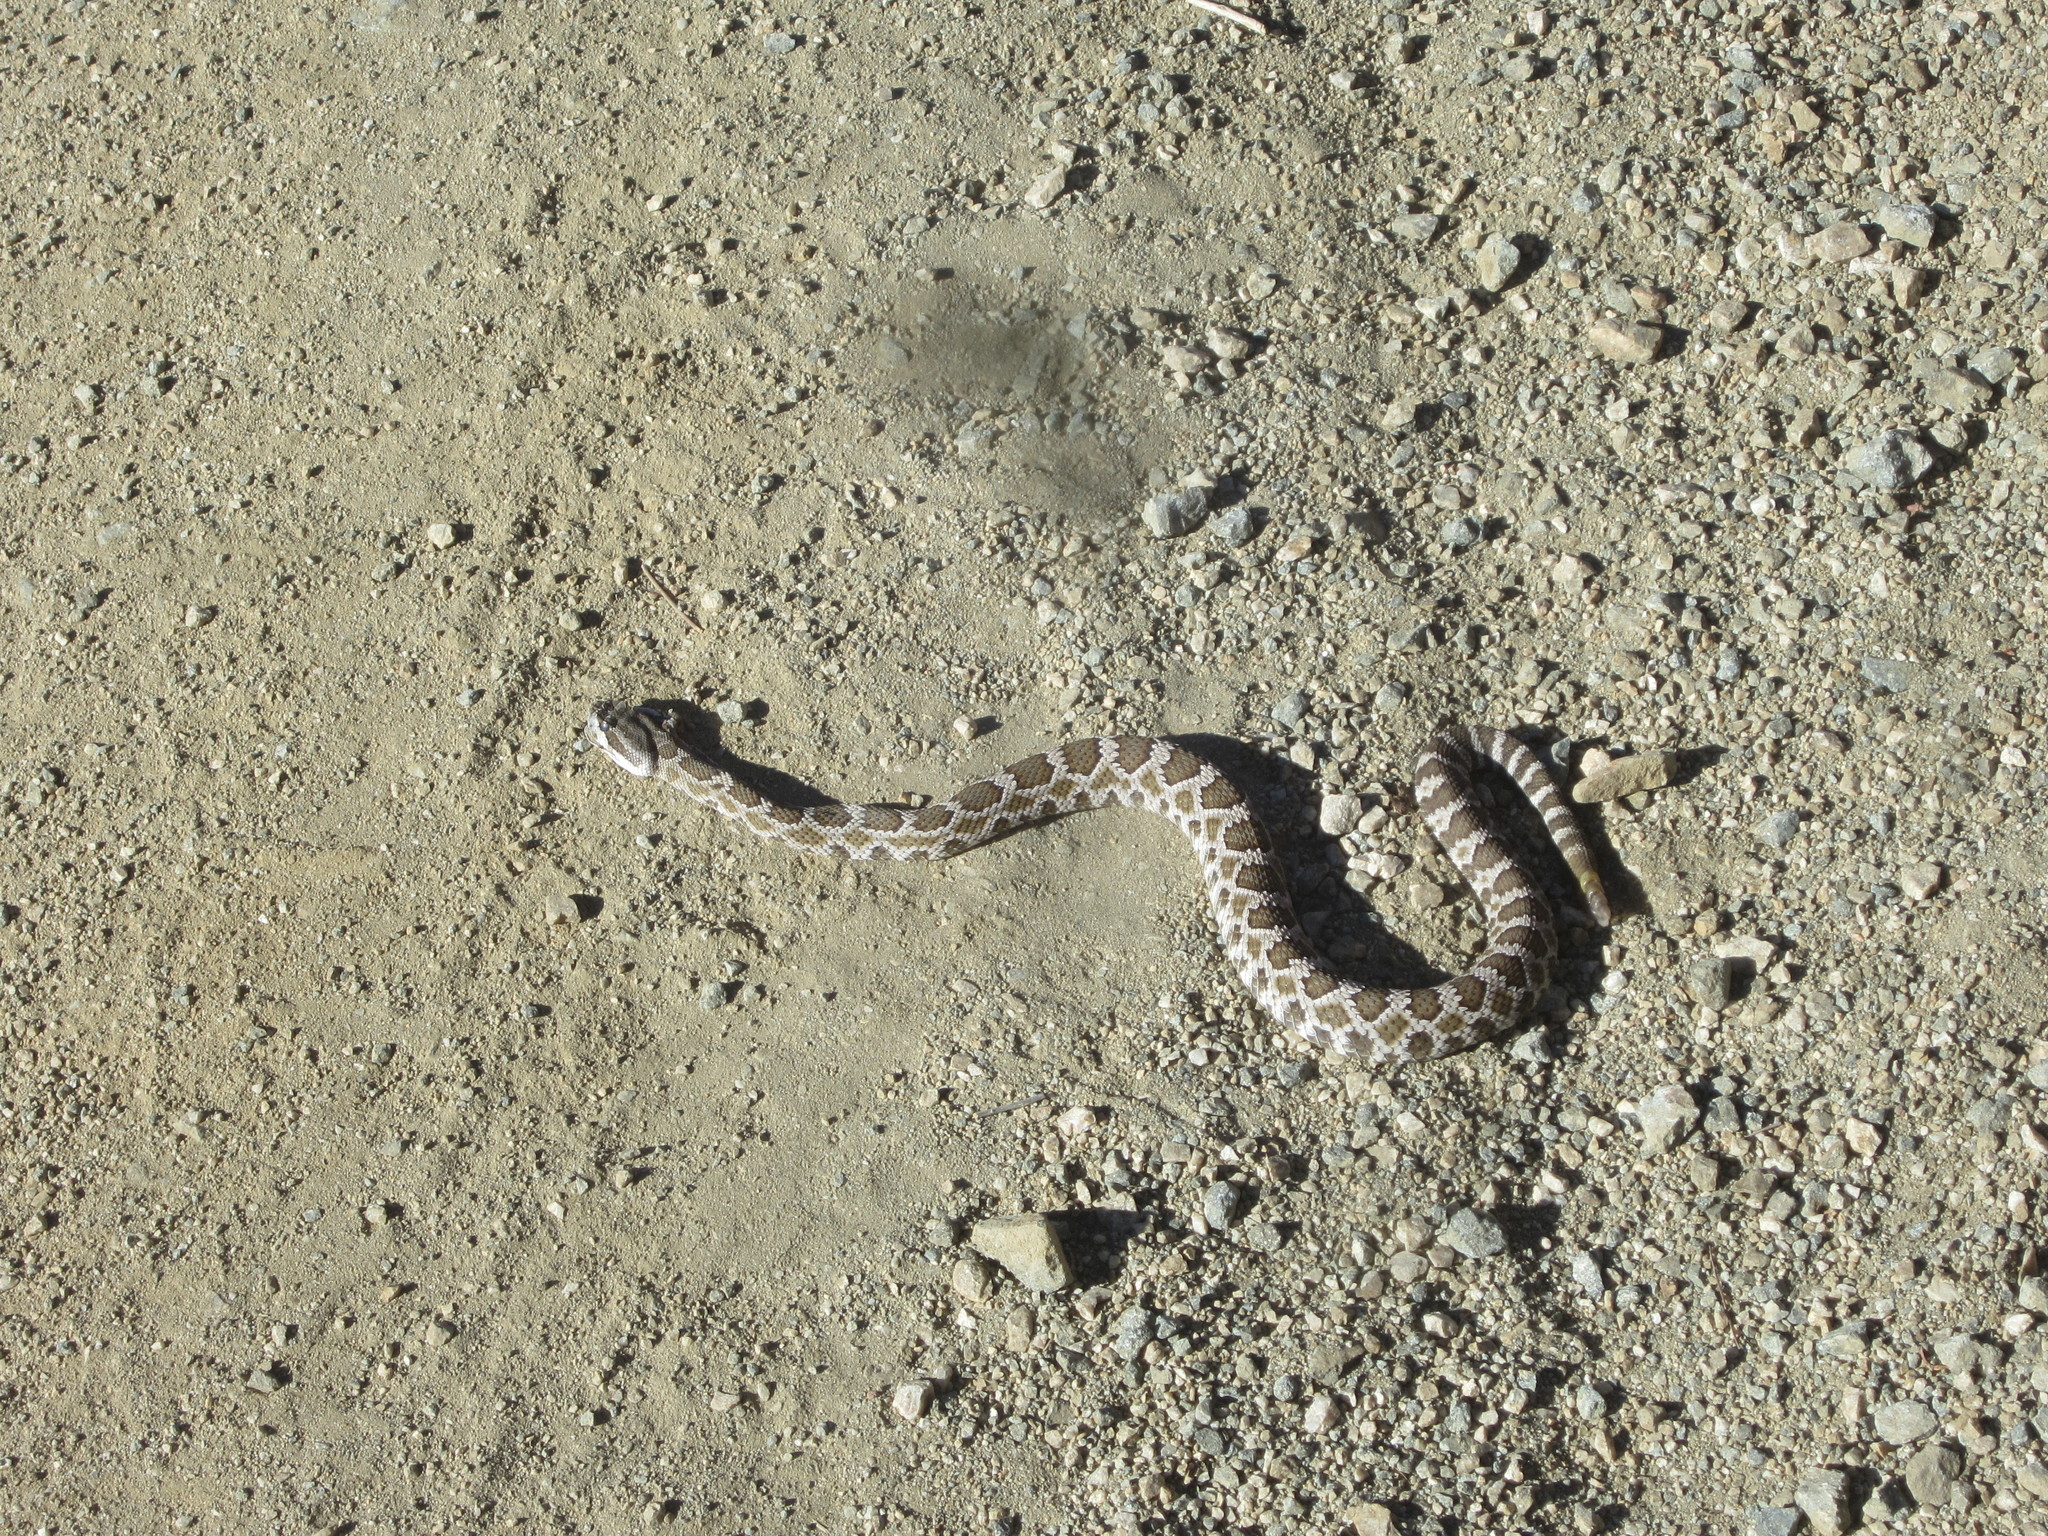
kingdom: Animalia
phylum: Chordata
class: Squamata
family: Viperidae
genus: Crotalus
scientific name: Crotalus oreganus
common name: Abyssus
